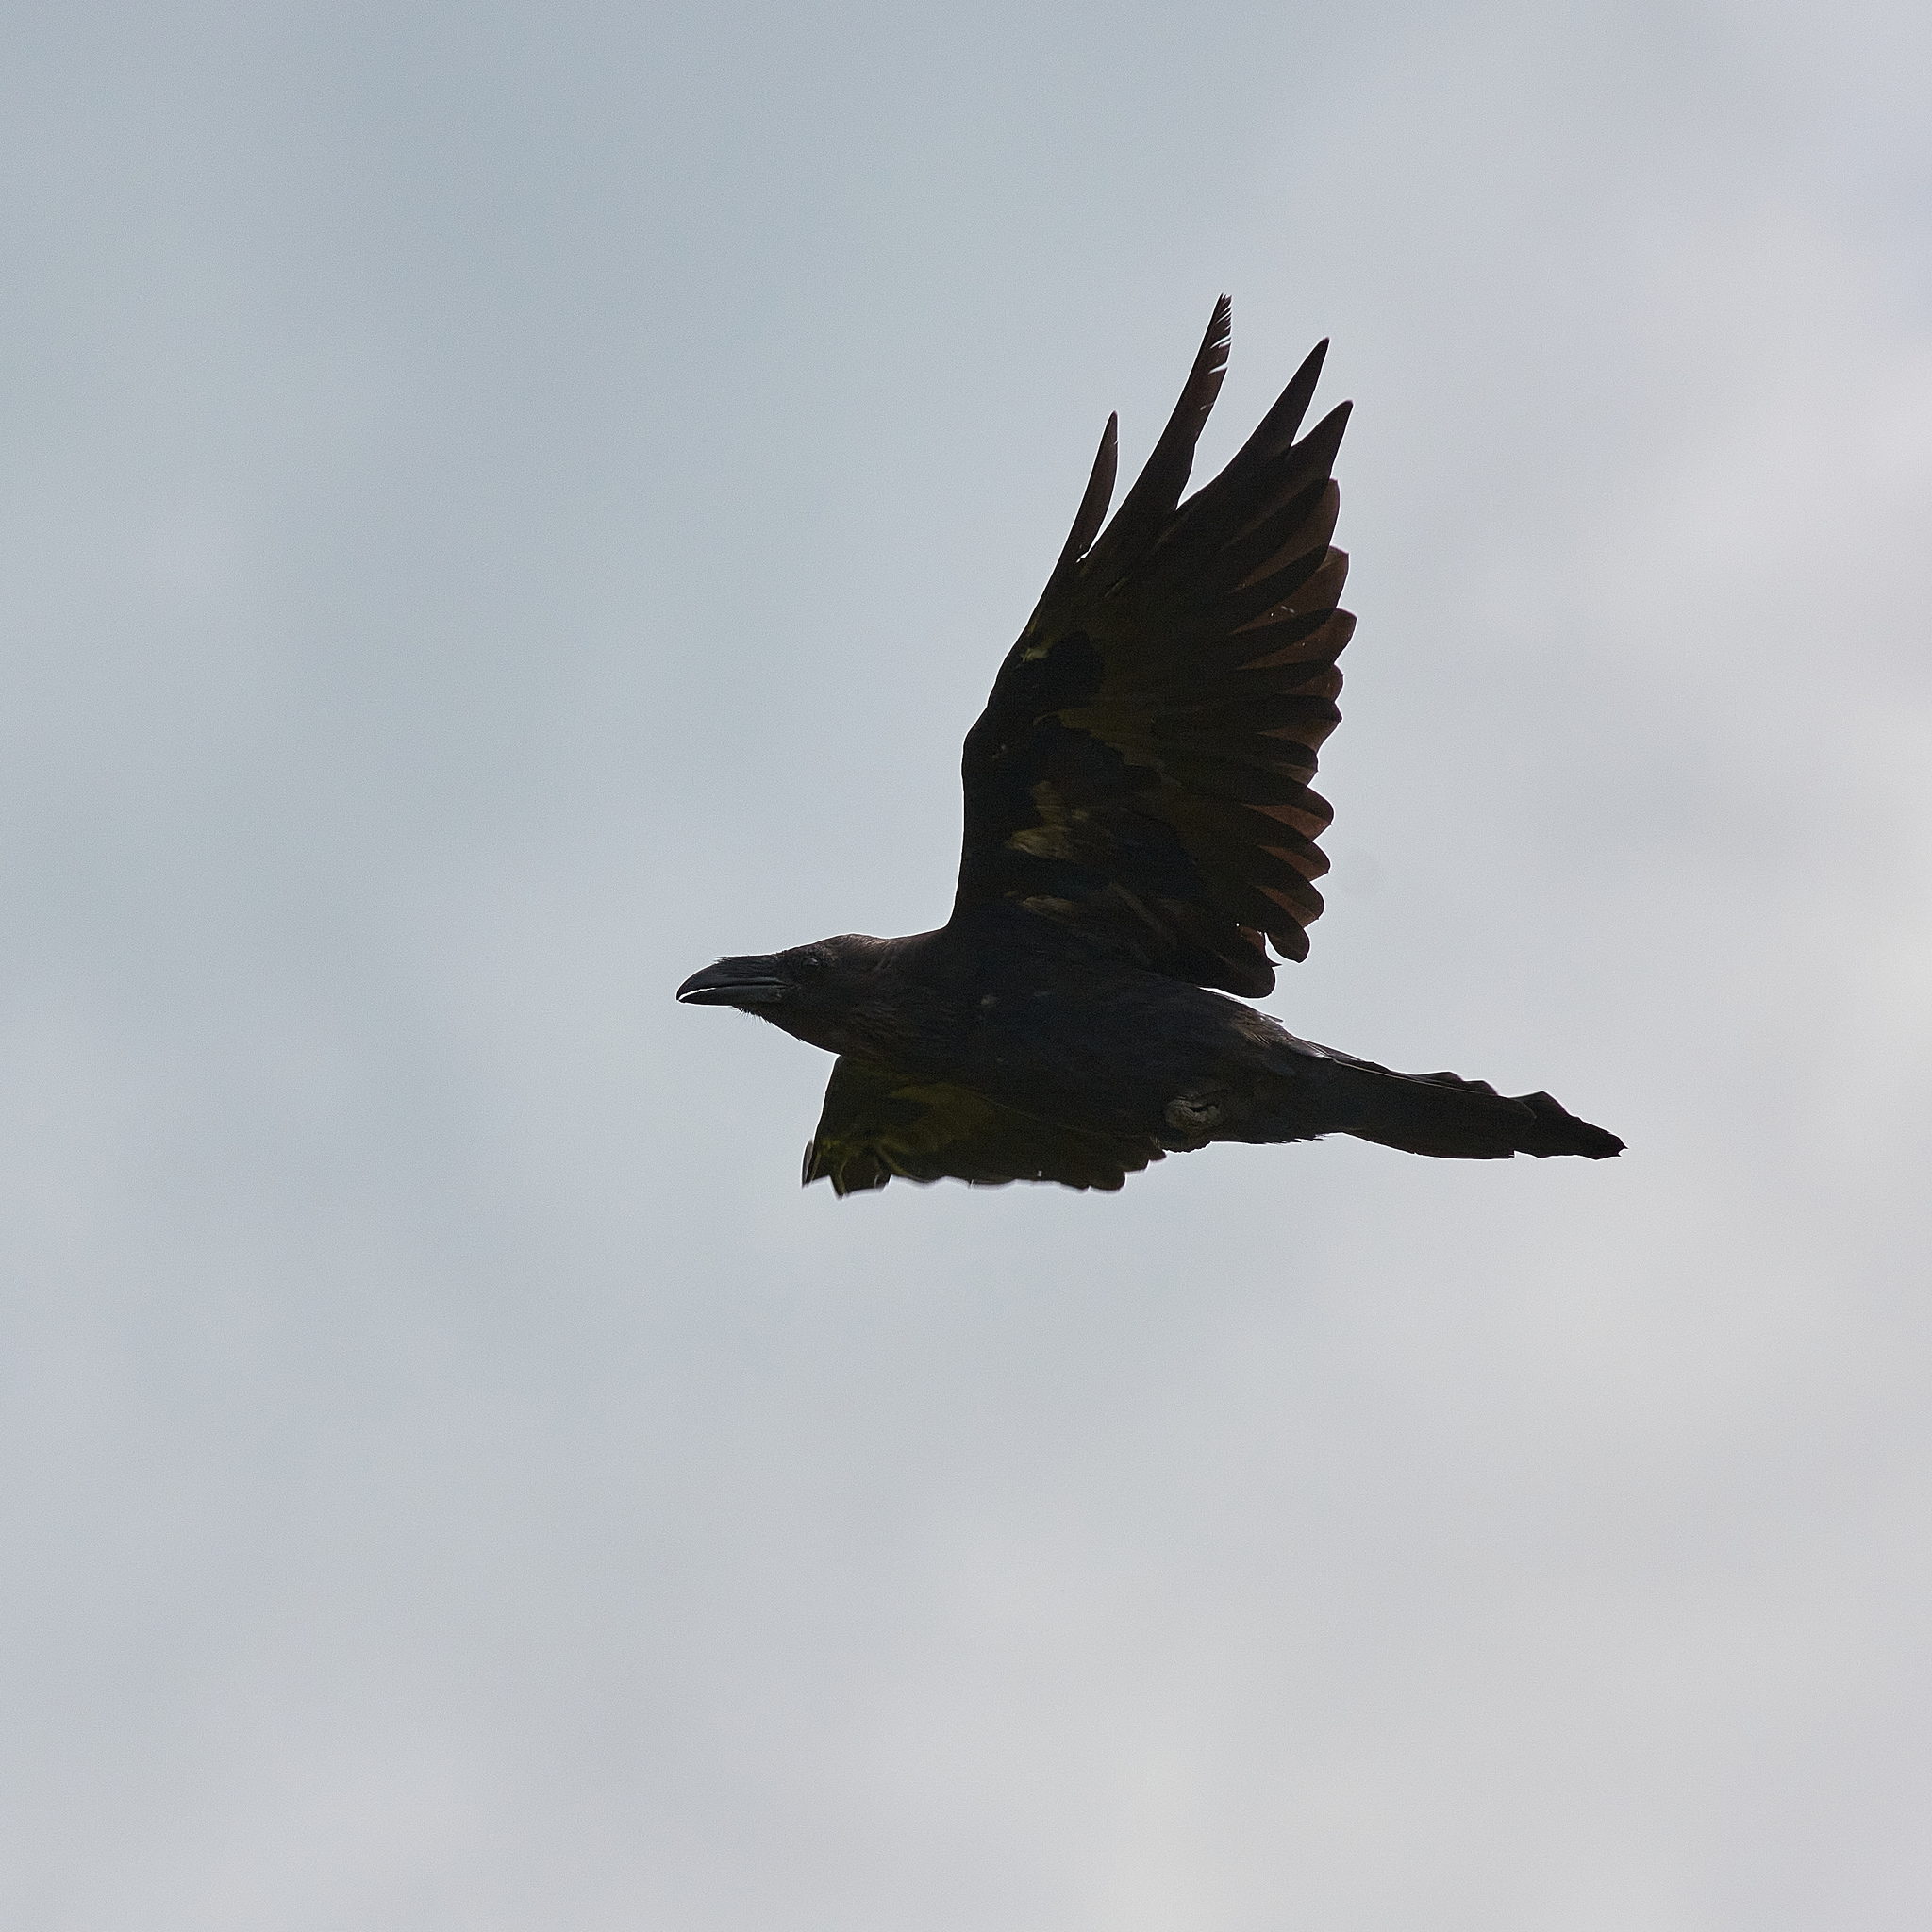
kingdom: Animalia
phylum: Chordata
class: Aves
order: Passeriformes
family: Corvidae
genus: Corvus
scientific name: Corvus corax
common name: Common raven
